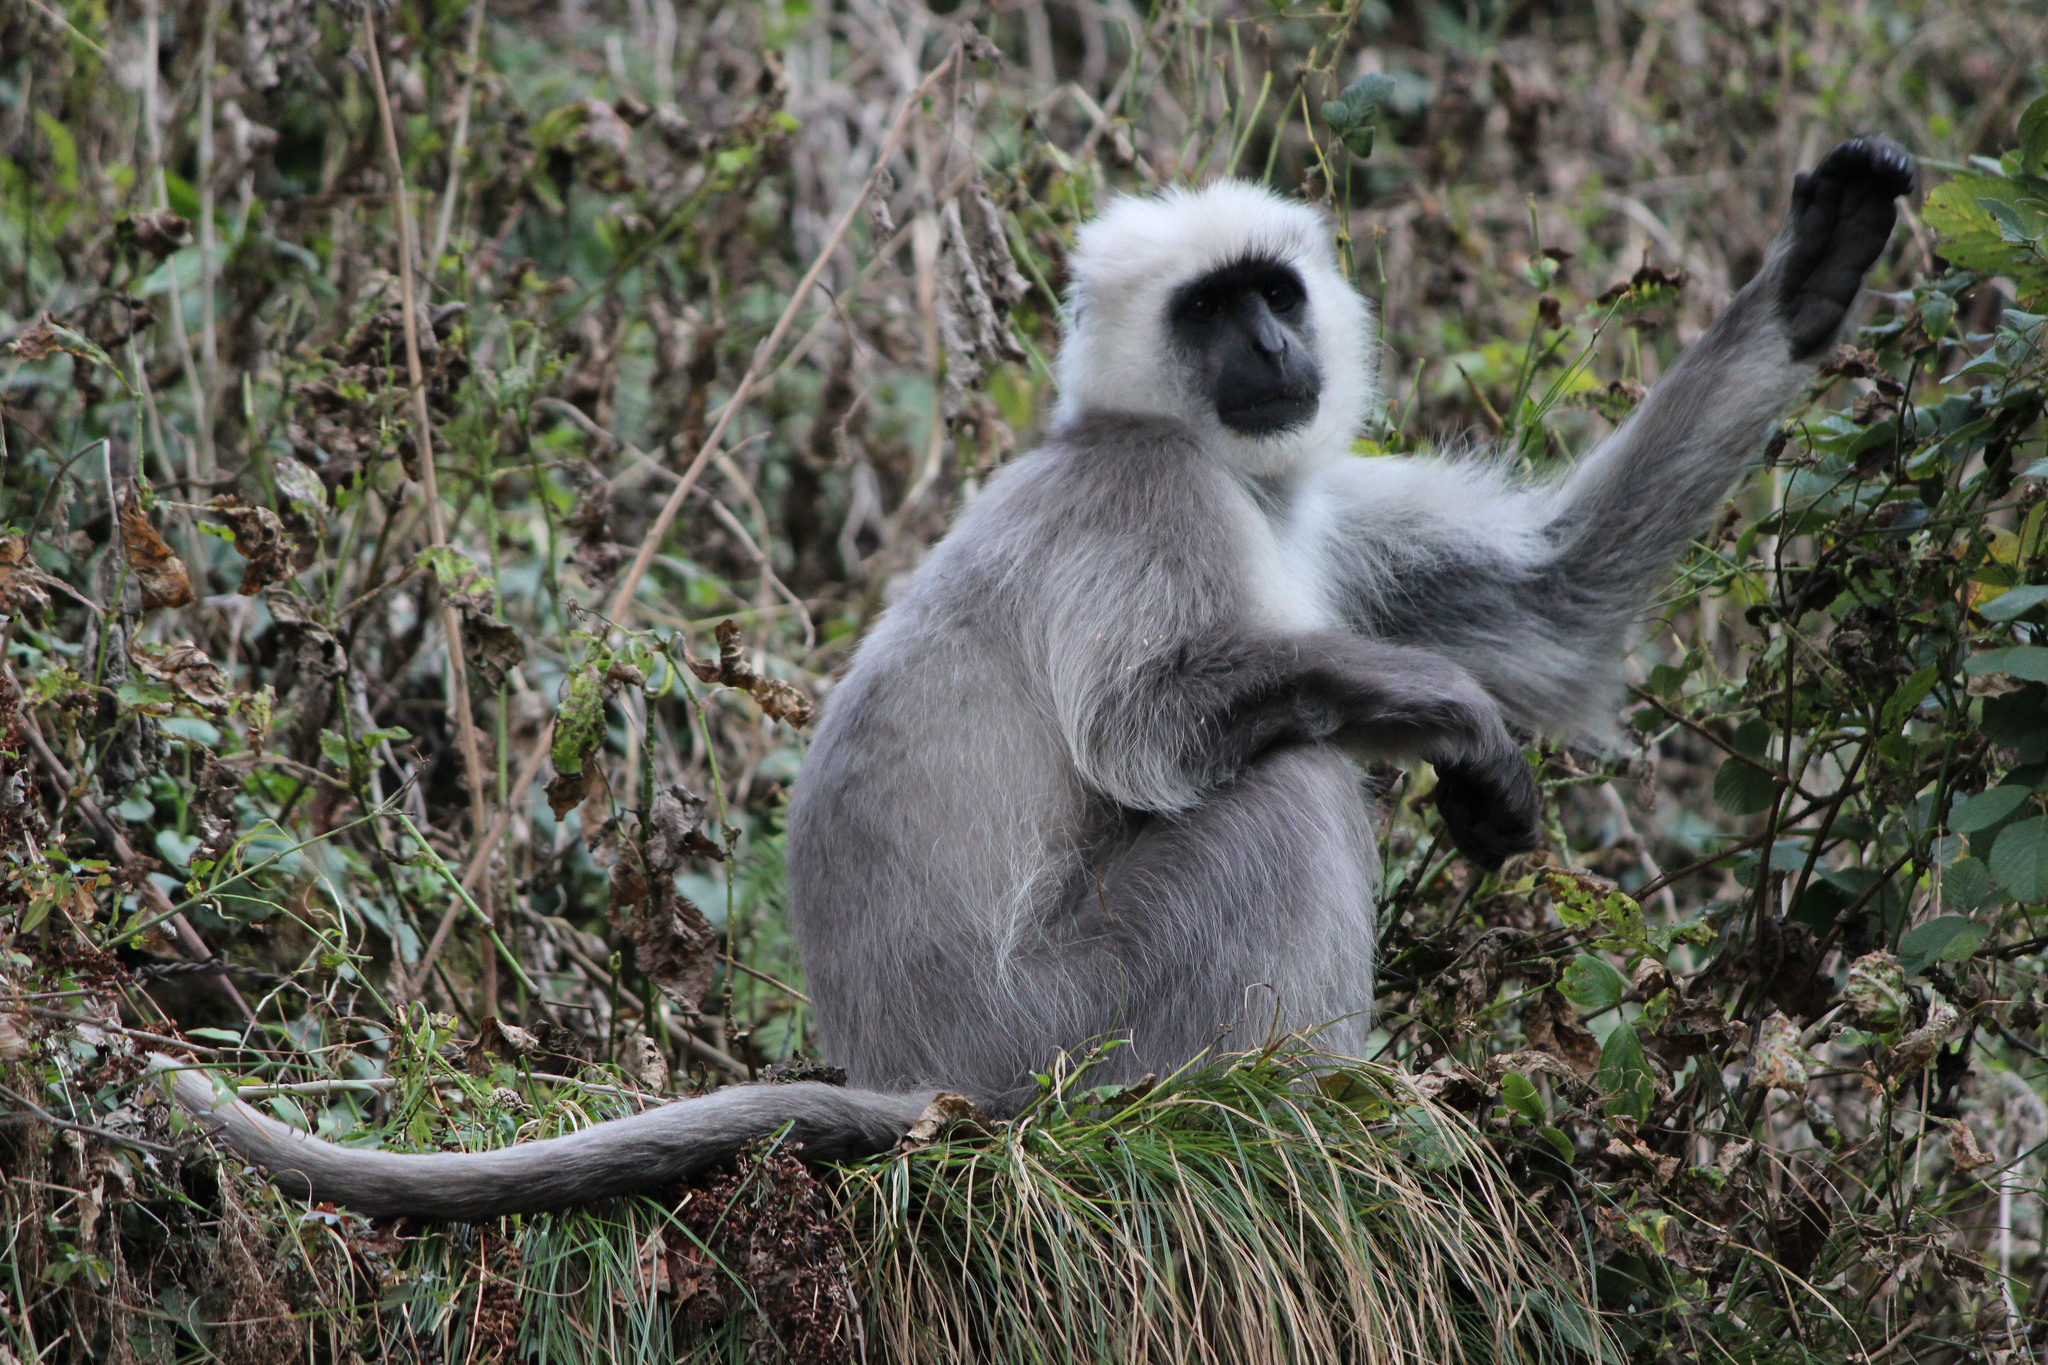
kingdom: Animalia
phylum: Chordata
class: Mammalia
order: Primates
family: Cercopithecidae
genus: Semnopithecus
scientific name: Semnopithecus schistaceus
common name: Nepal gray langur
